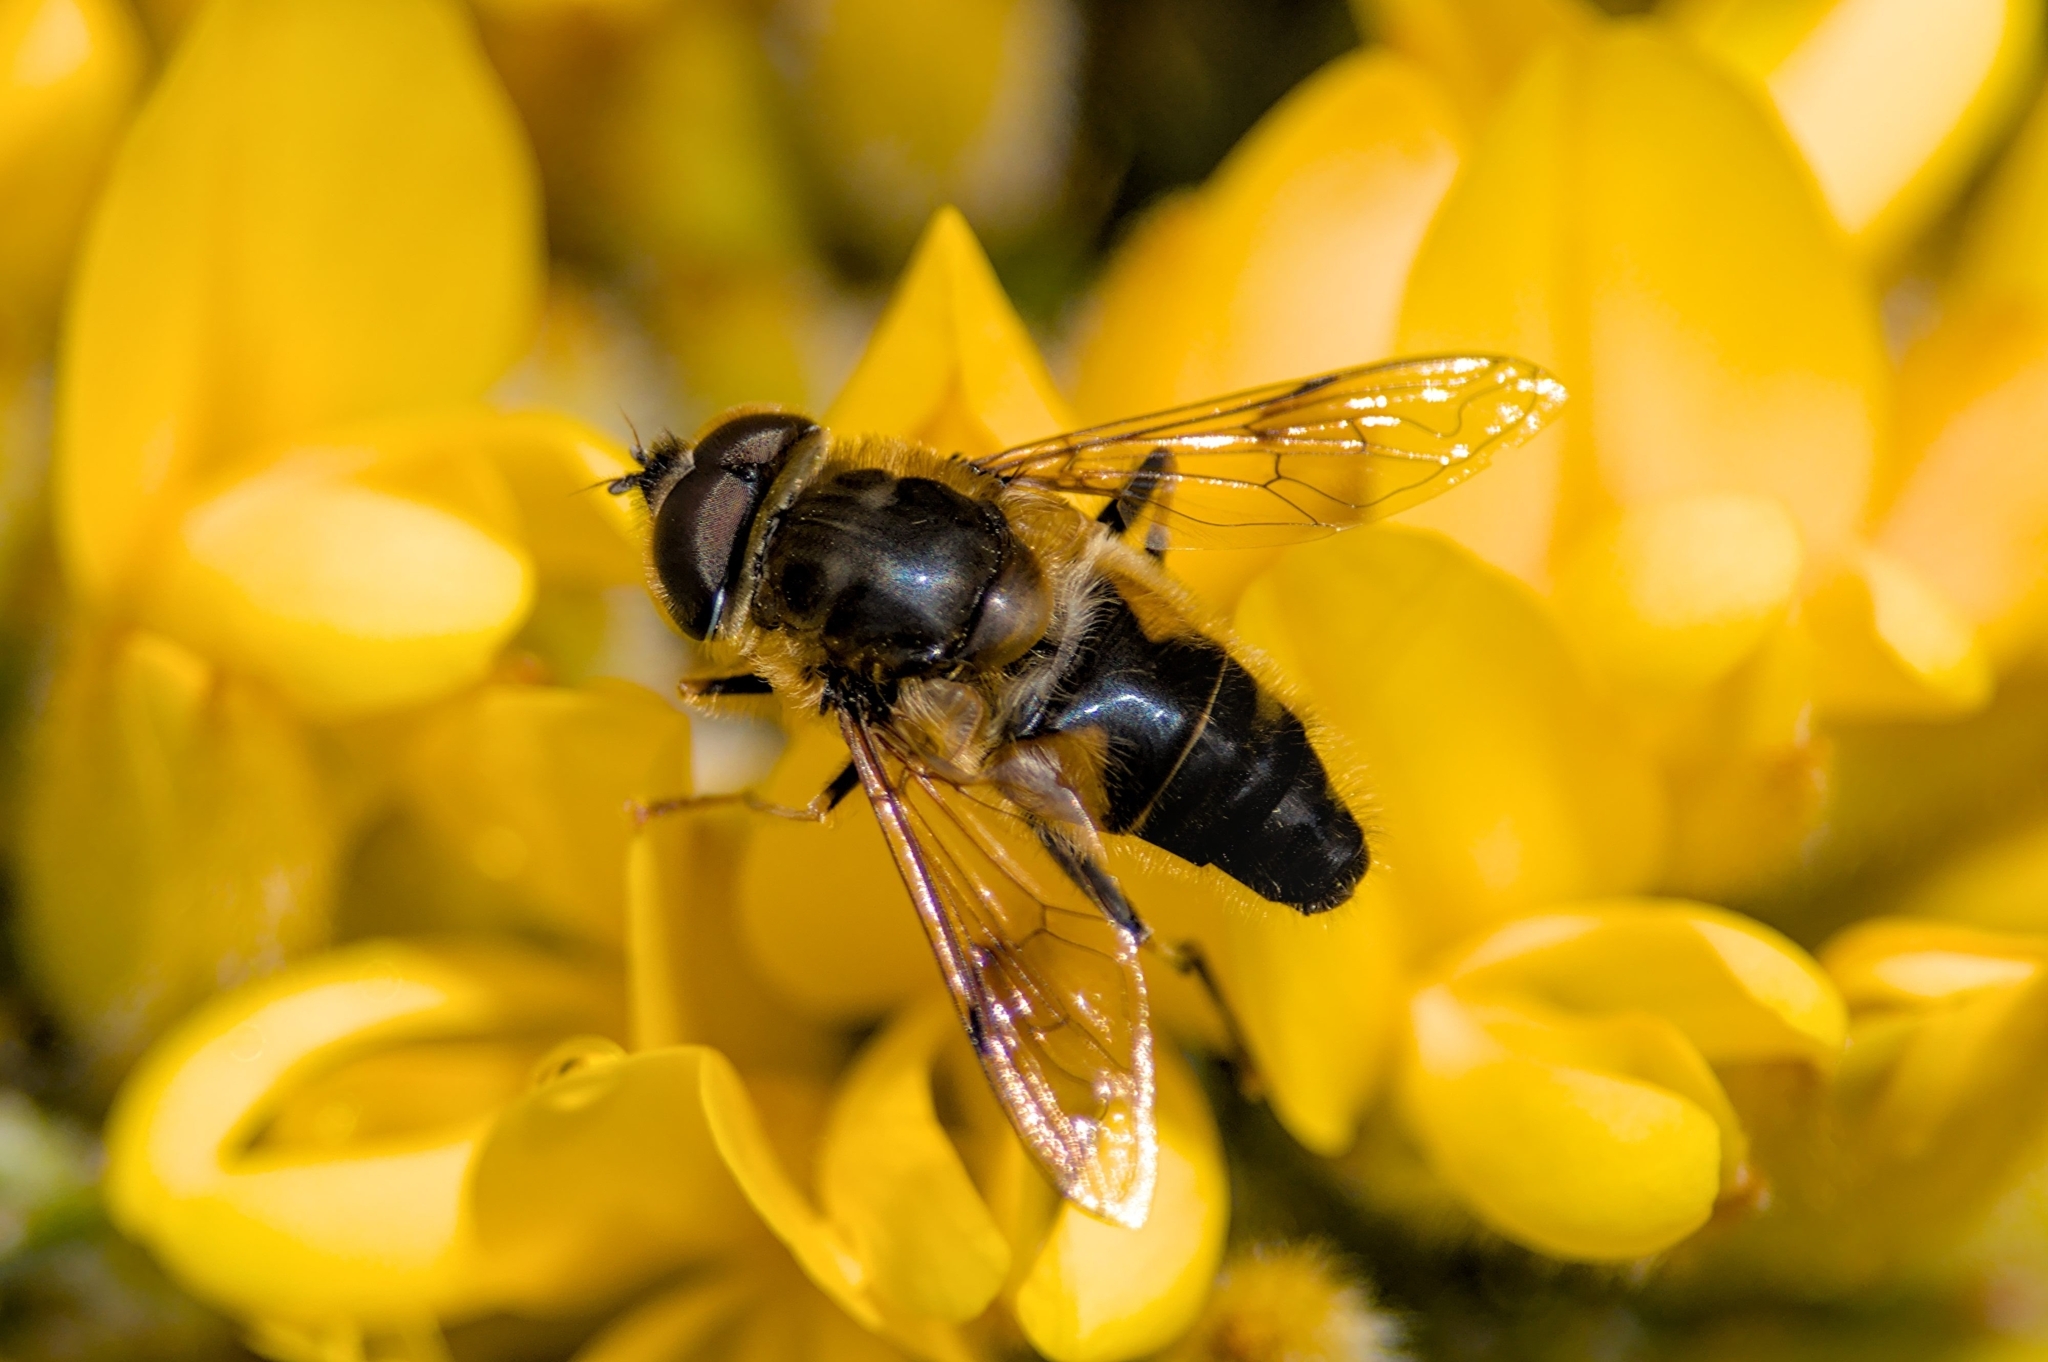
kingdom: Animalia
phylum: Arthropoda
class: Insecta
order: Diptera
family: Syrphidae
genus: Eristalis
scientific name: Eristalis pertinax
